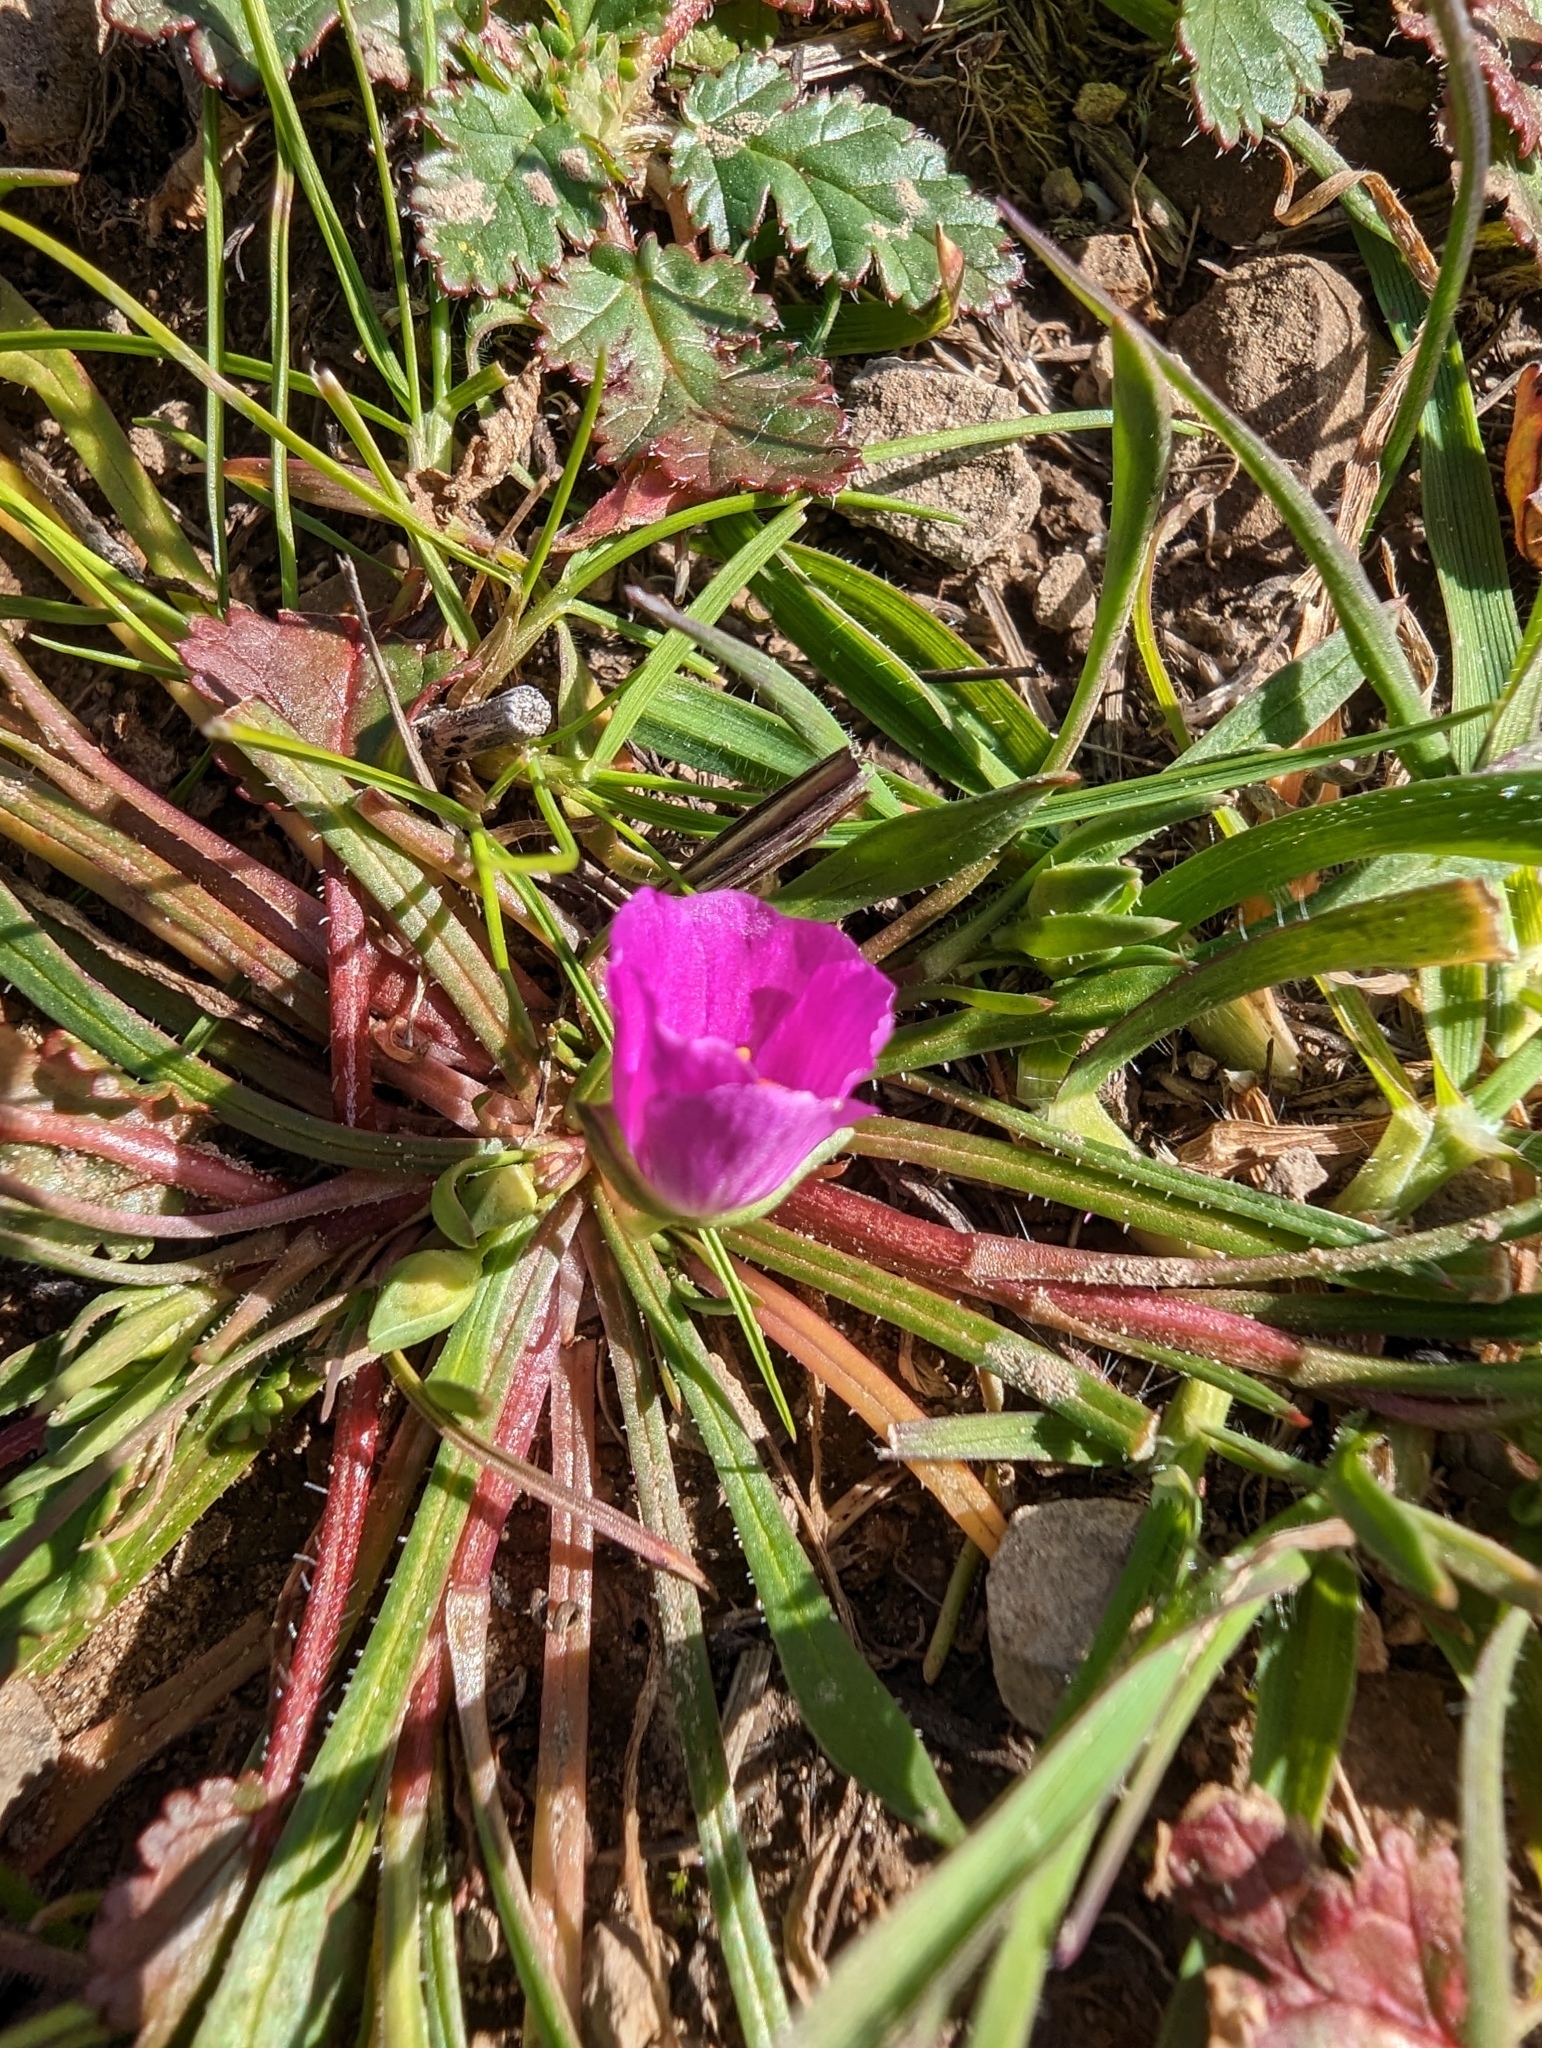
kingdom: Plantae
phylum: Tracheophyta
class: Magnoliopsida
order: Caryophyllales
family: Montiaceae
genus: Calandrinia
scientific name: Calandrinia menziesii
